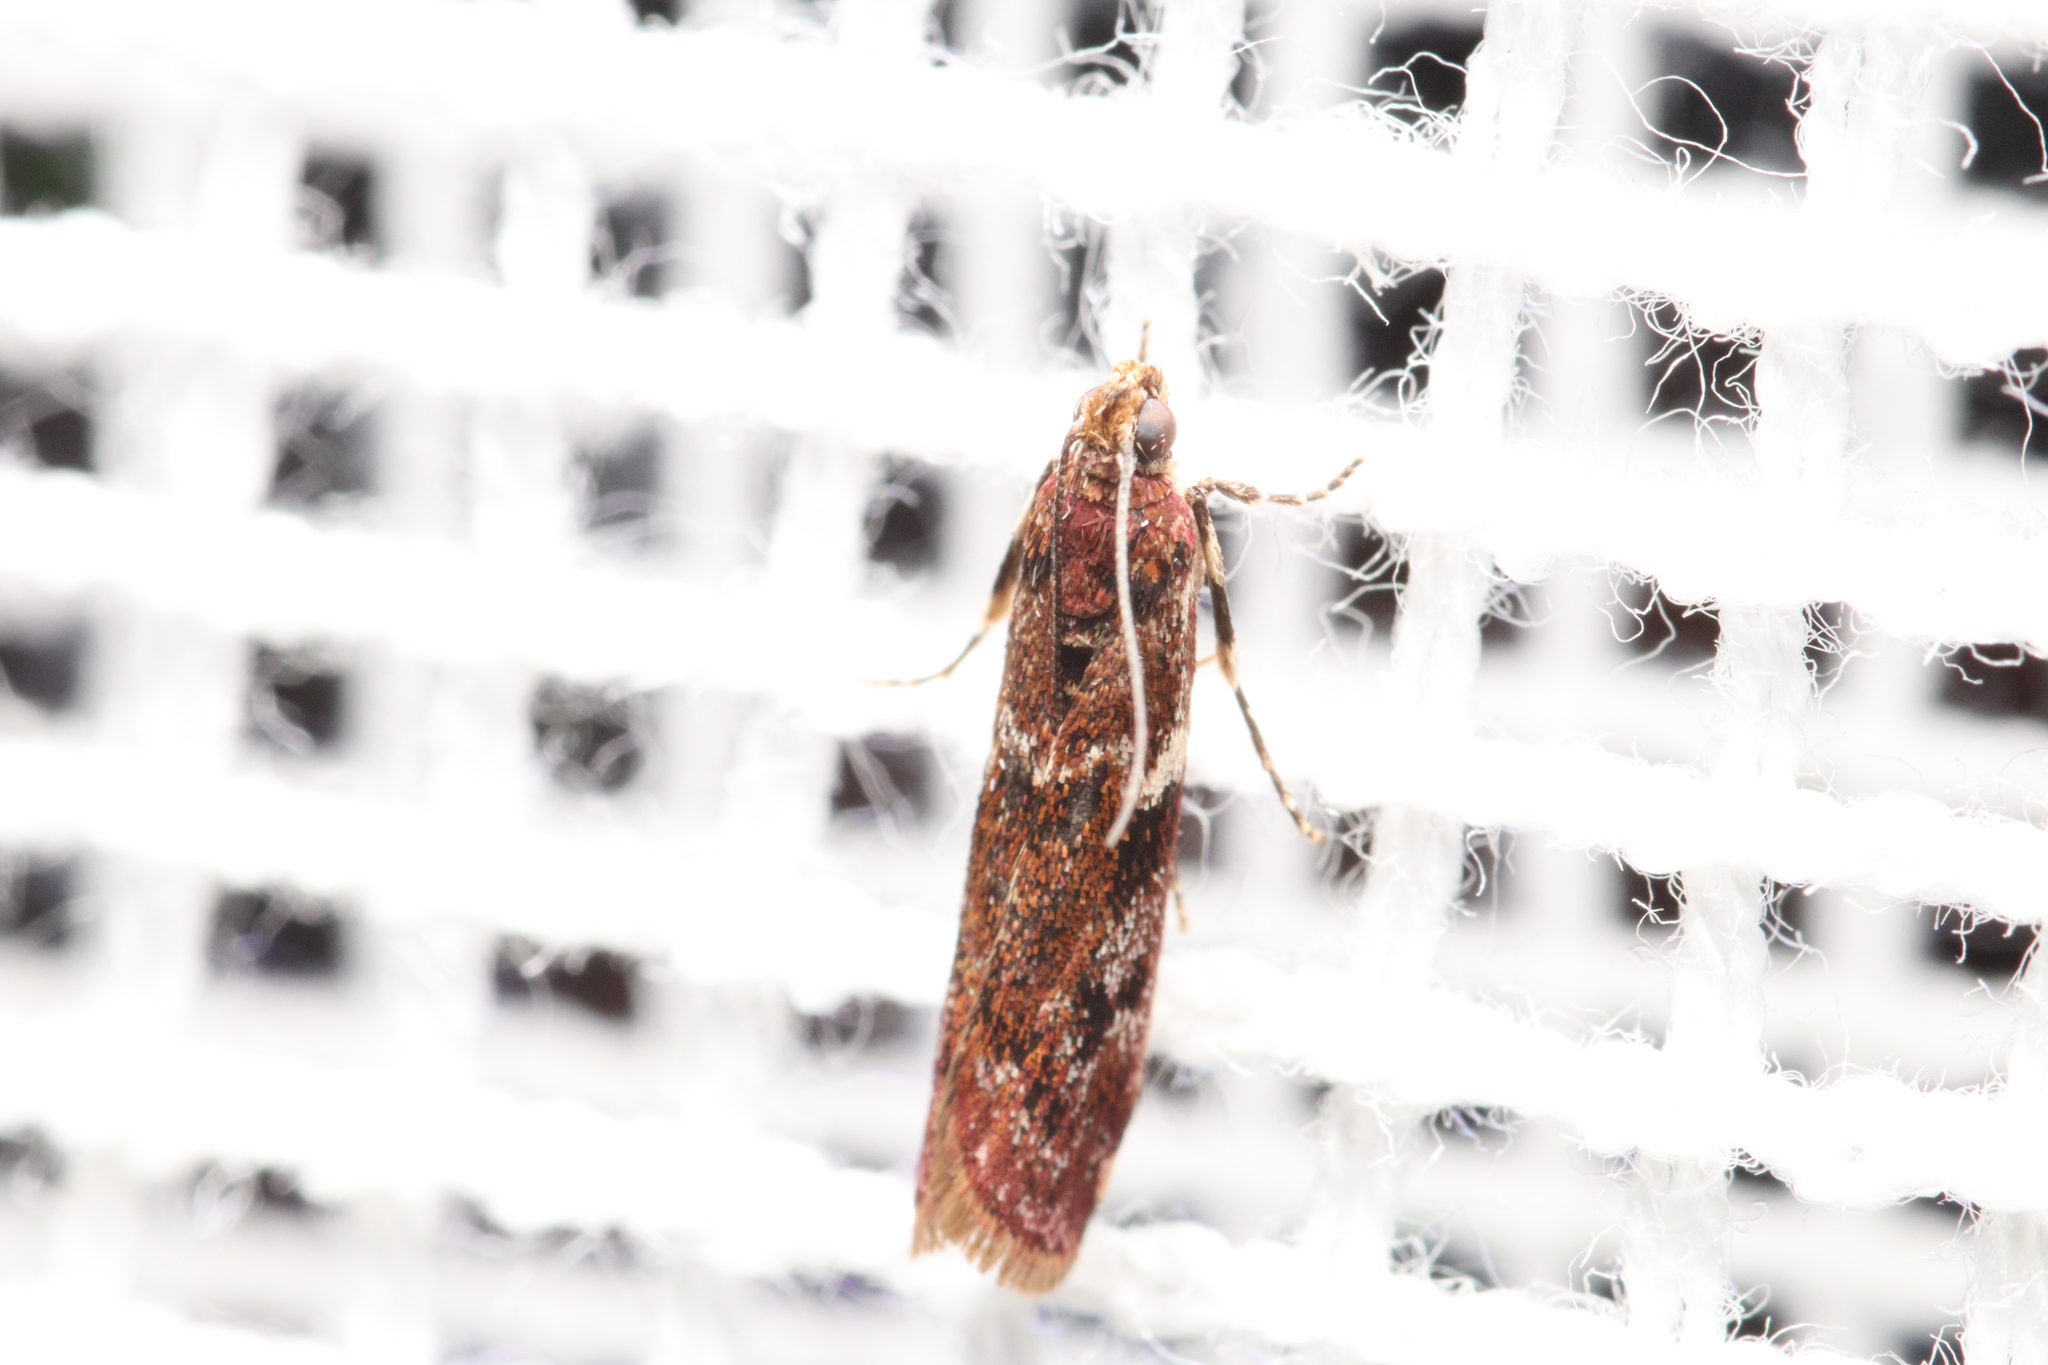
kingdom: Animalia
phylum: Arthropoda
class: Insecta
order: Lepidoptera
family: Pyralidae
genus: Ephestiopsis
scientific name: Ephestiopsis oenobarella
